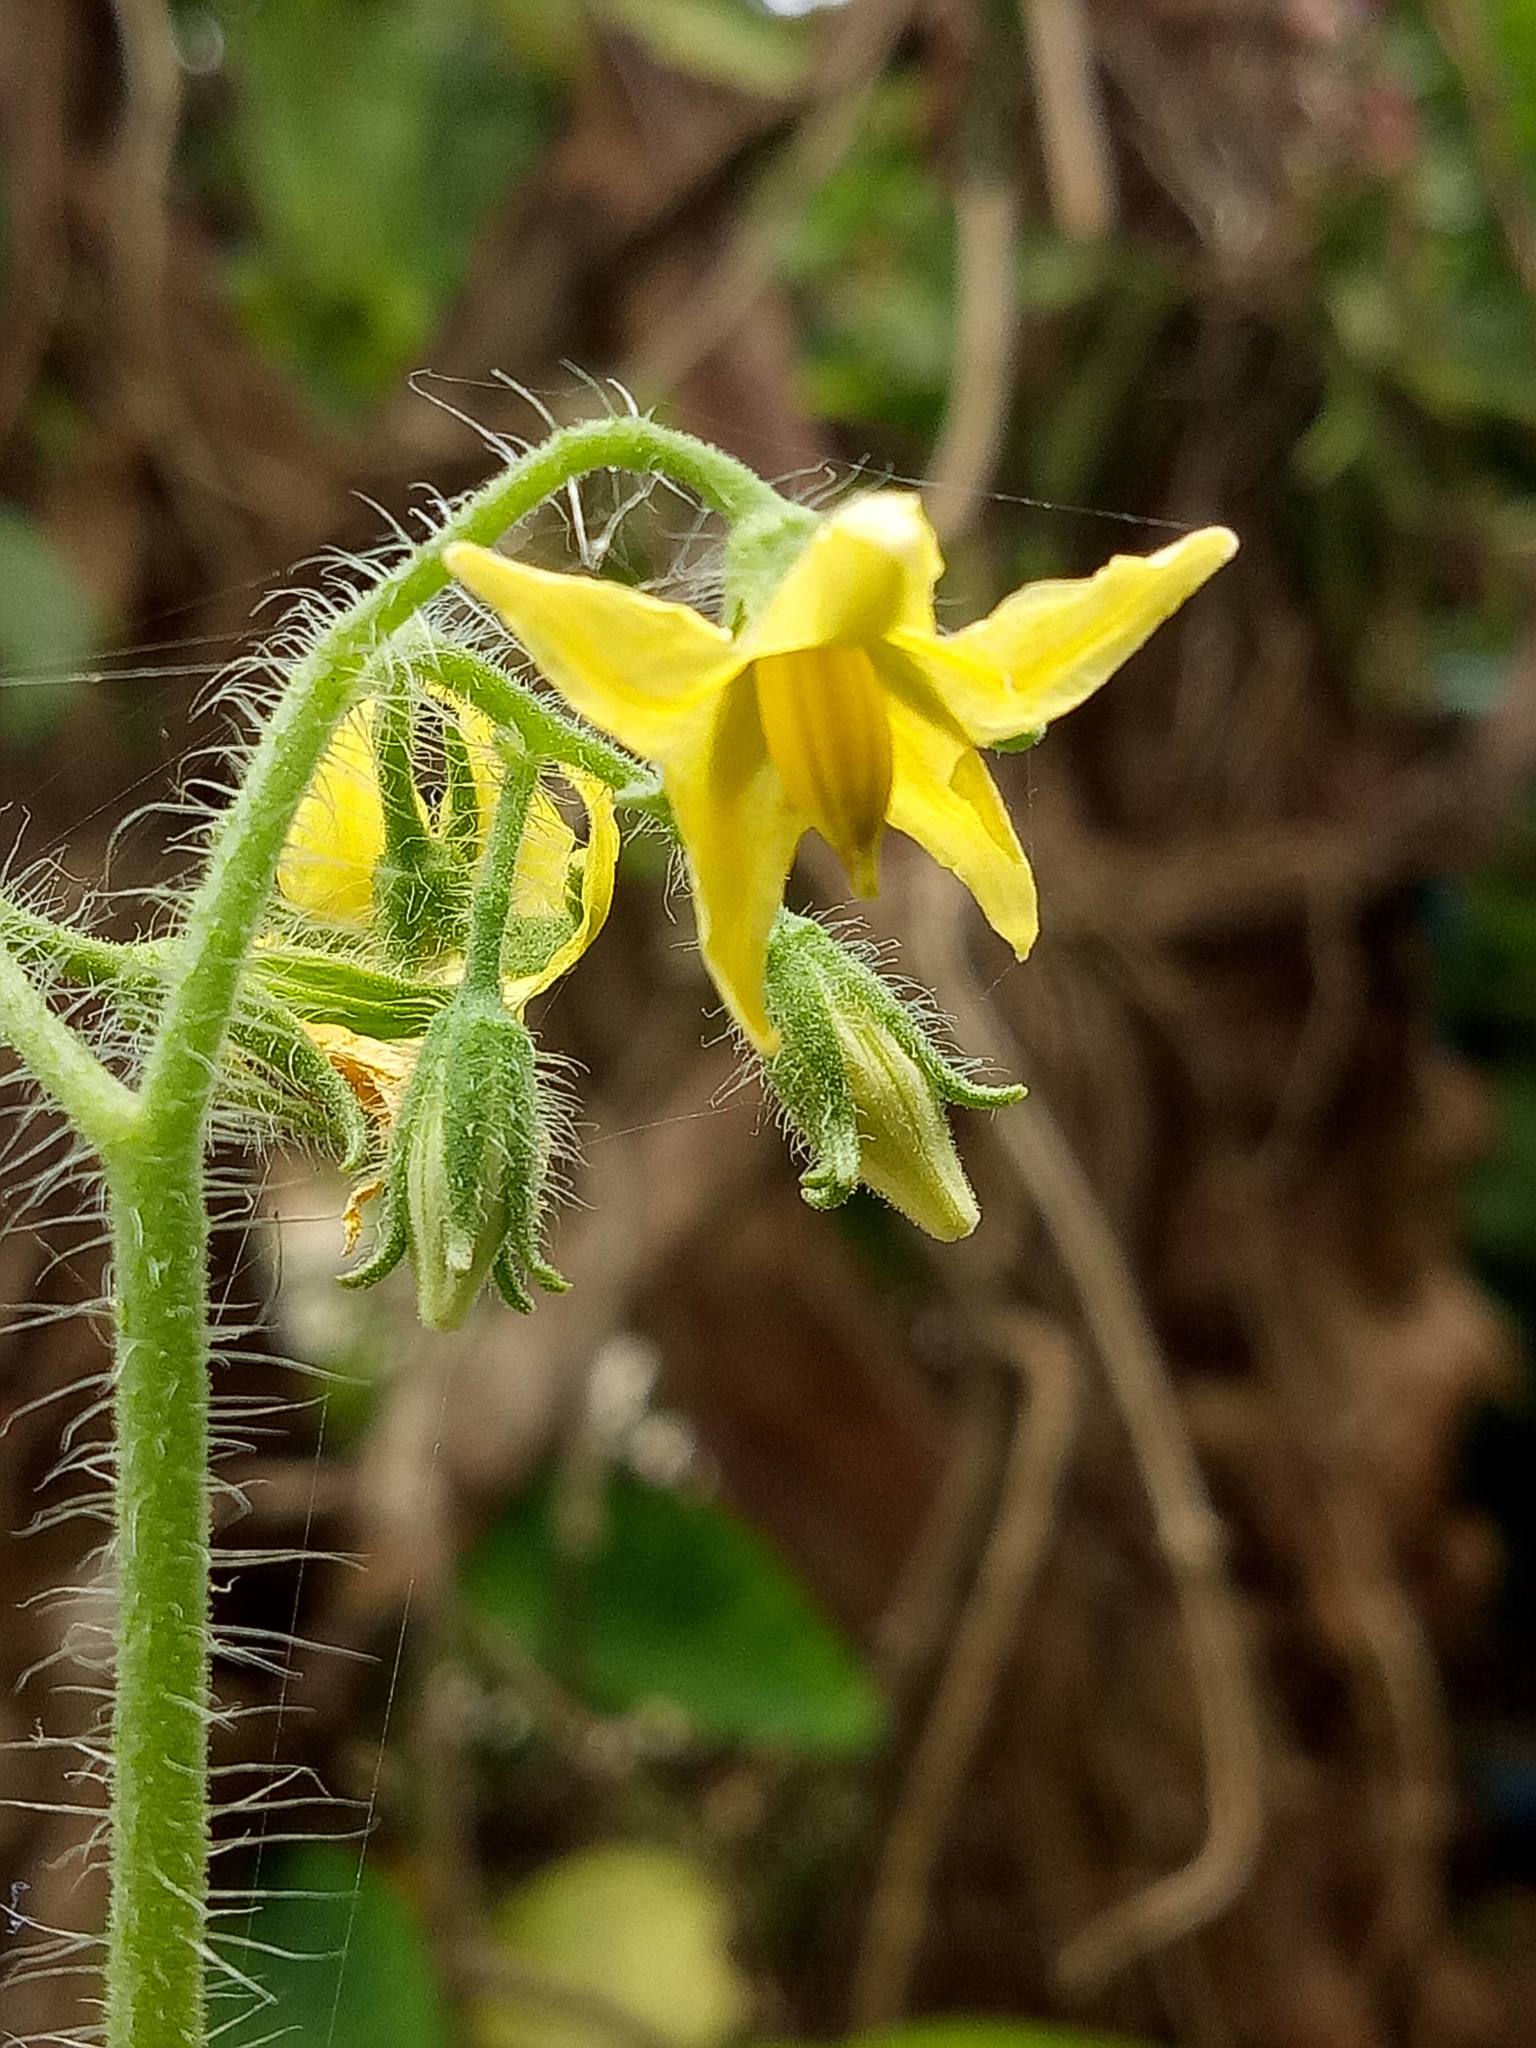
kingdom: Plantae
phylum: Tracheophyta
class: Magnoliopsida
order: Solanales
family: Solanaceae
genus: Solanum
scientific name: Solanum lycopersicum
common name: Garden tomato
